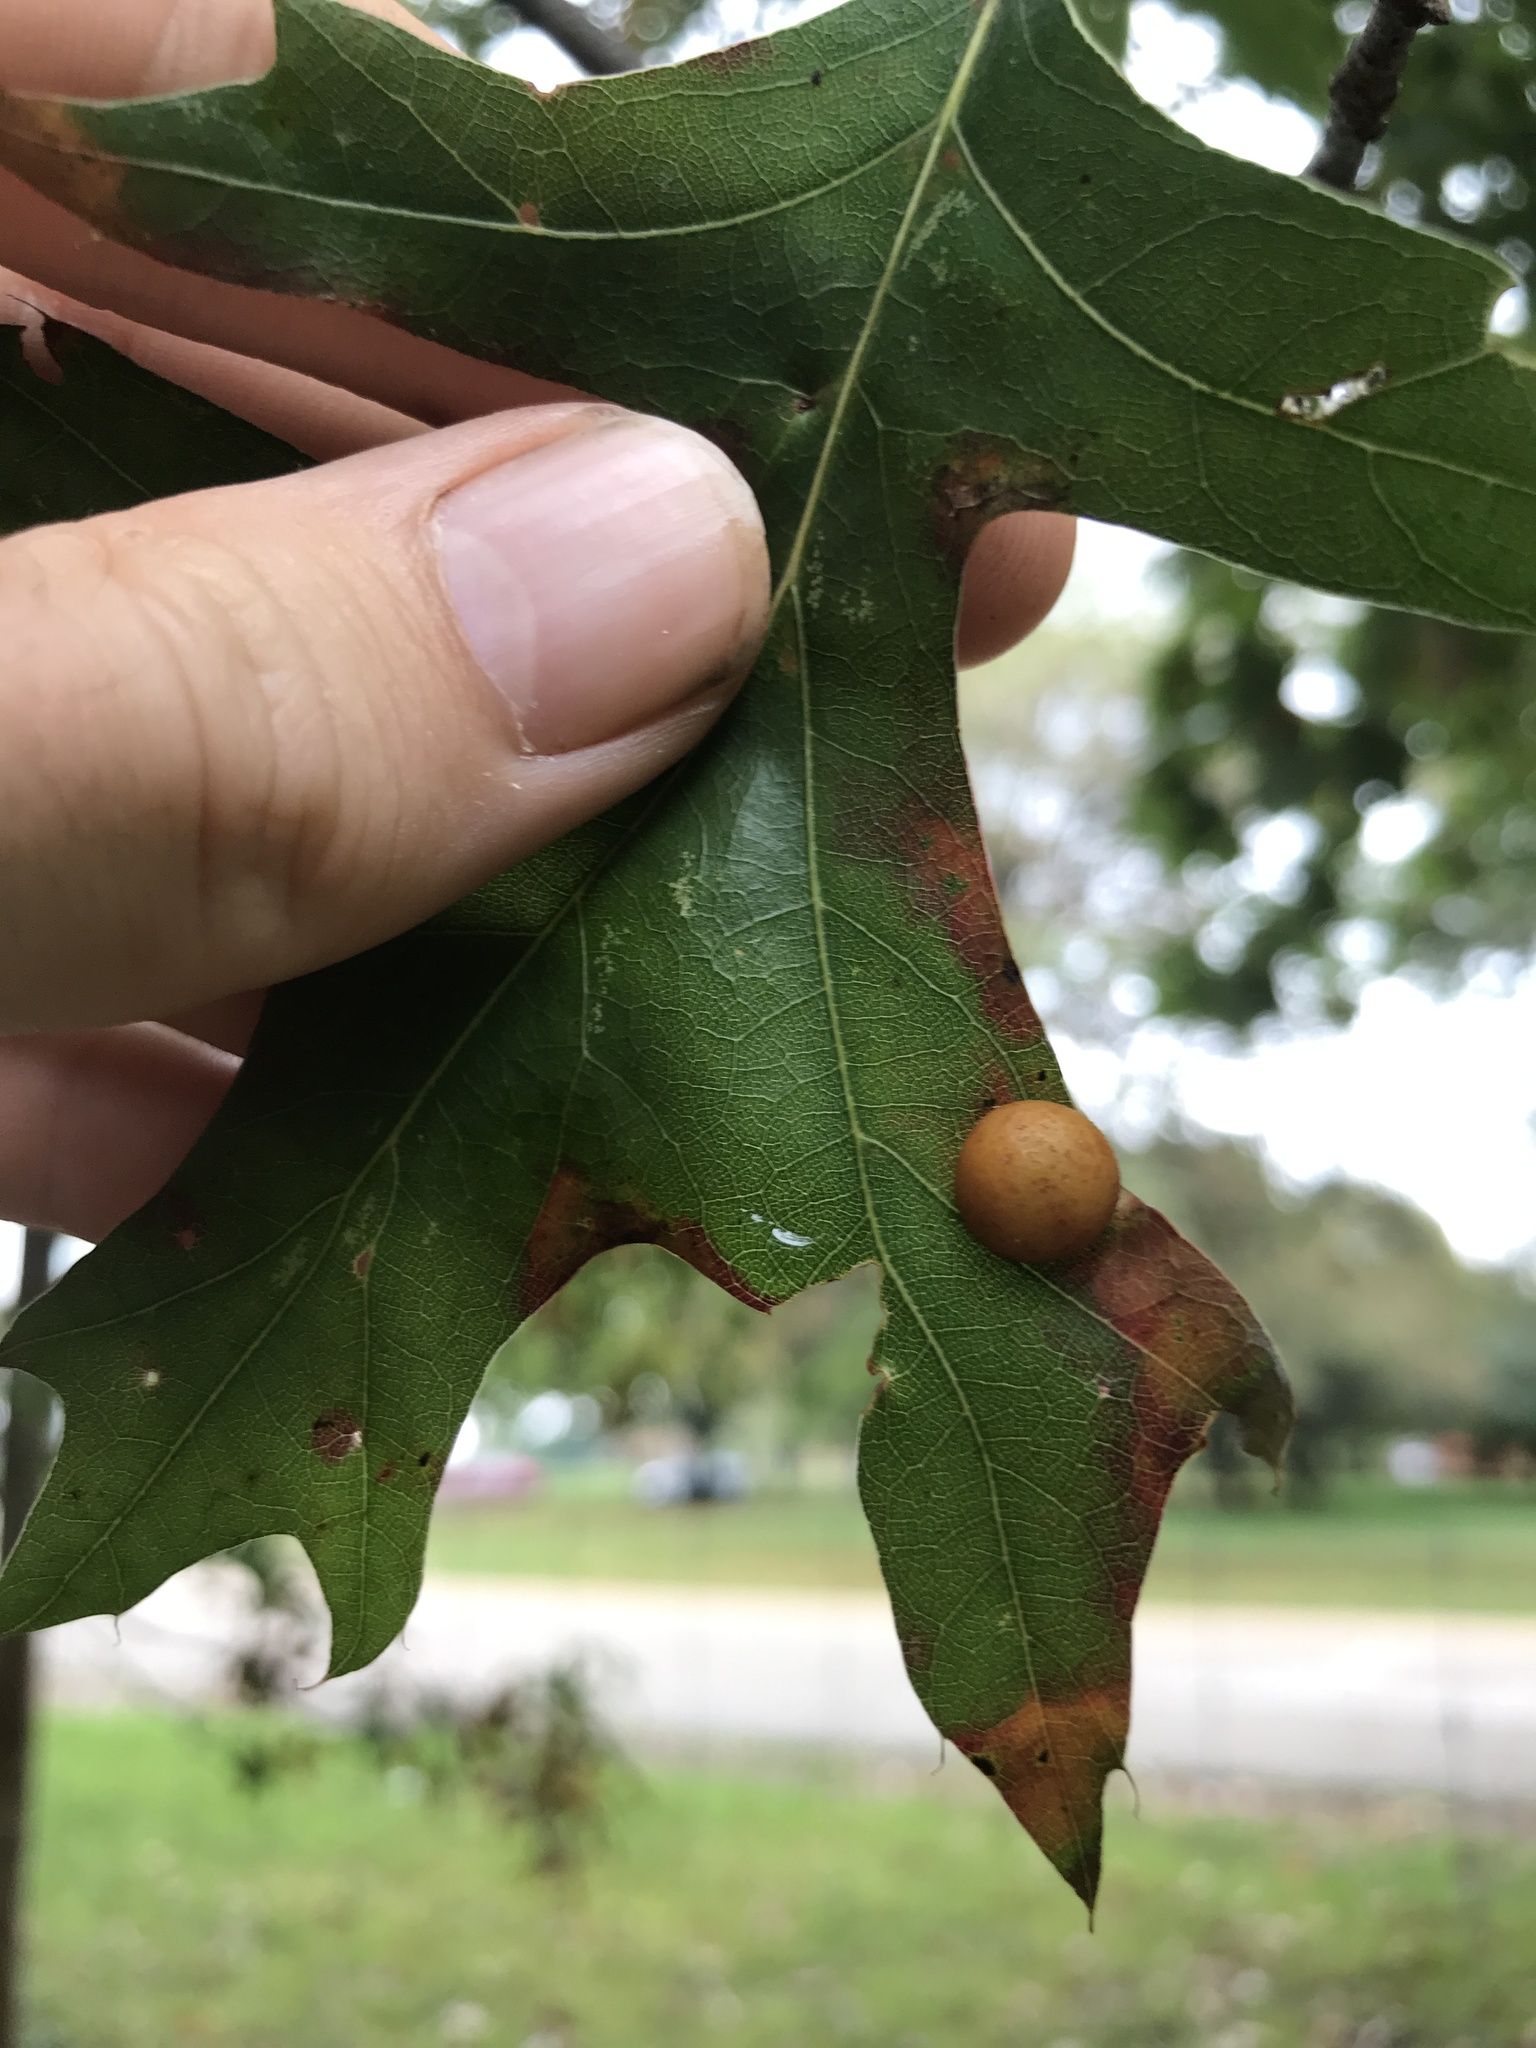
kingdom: Animalia
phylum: Arthropoda
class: Insecta
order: Diptera
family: Cecidomyiidae
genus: Polystepha
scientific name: Polystepha pilulae
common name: Oak leaf gall midge
